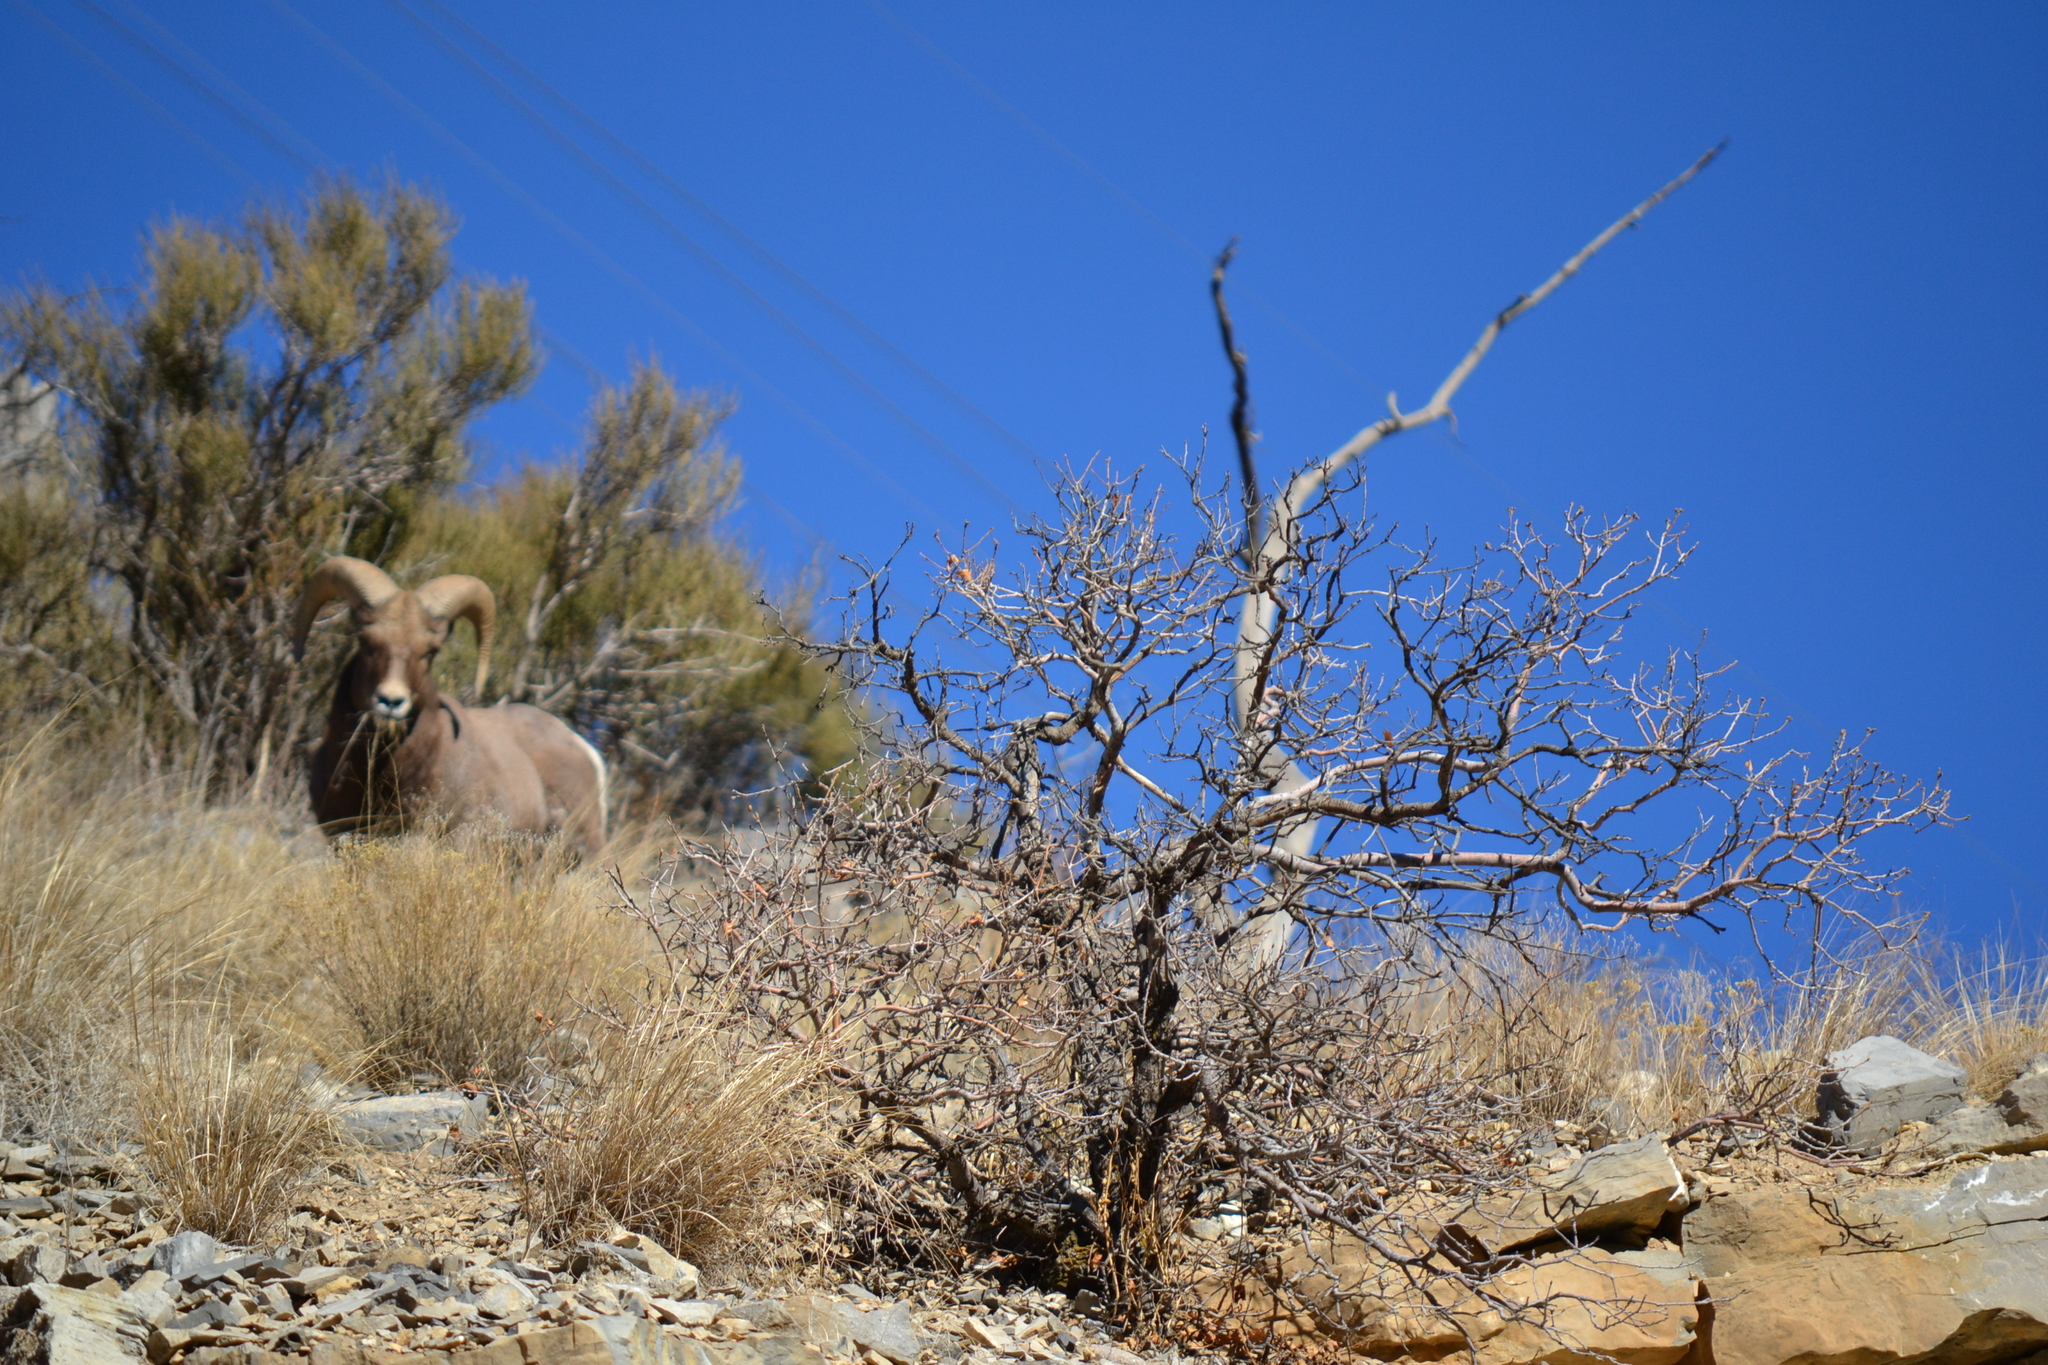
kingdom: Animalia
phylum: Chordata
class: Mammalia
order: Artiodactyla
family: Bovidae
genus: Ovis
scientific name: Ovis canadensis
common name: Bighorn sheep
